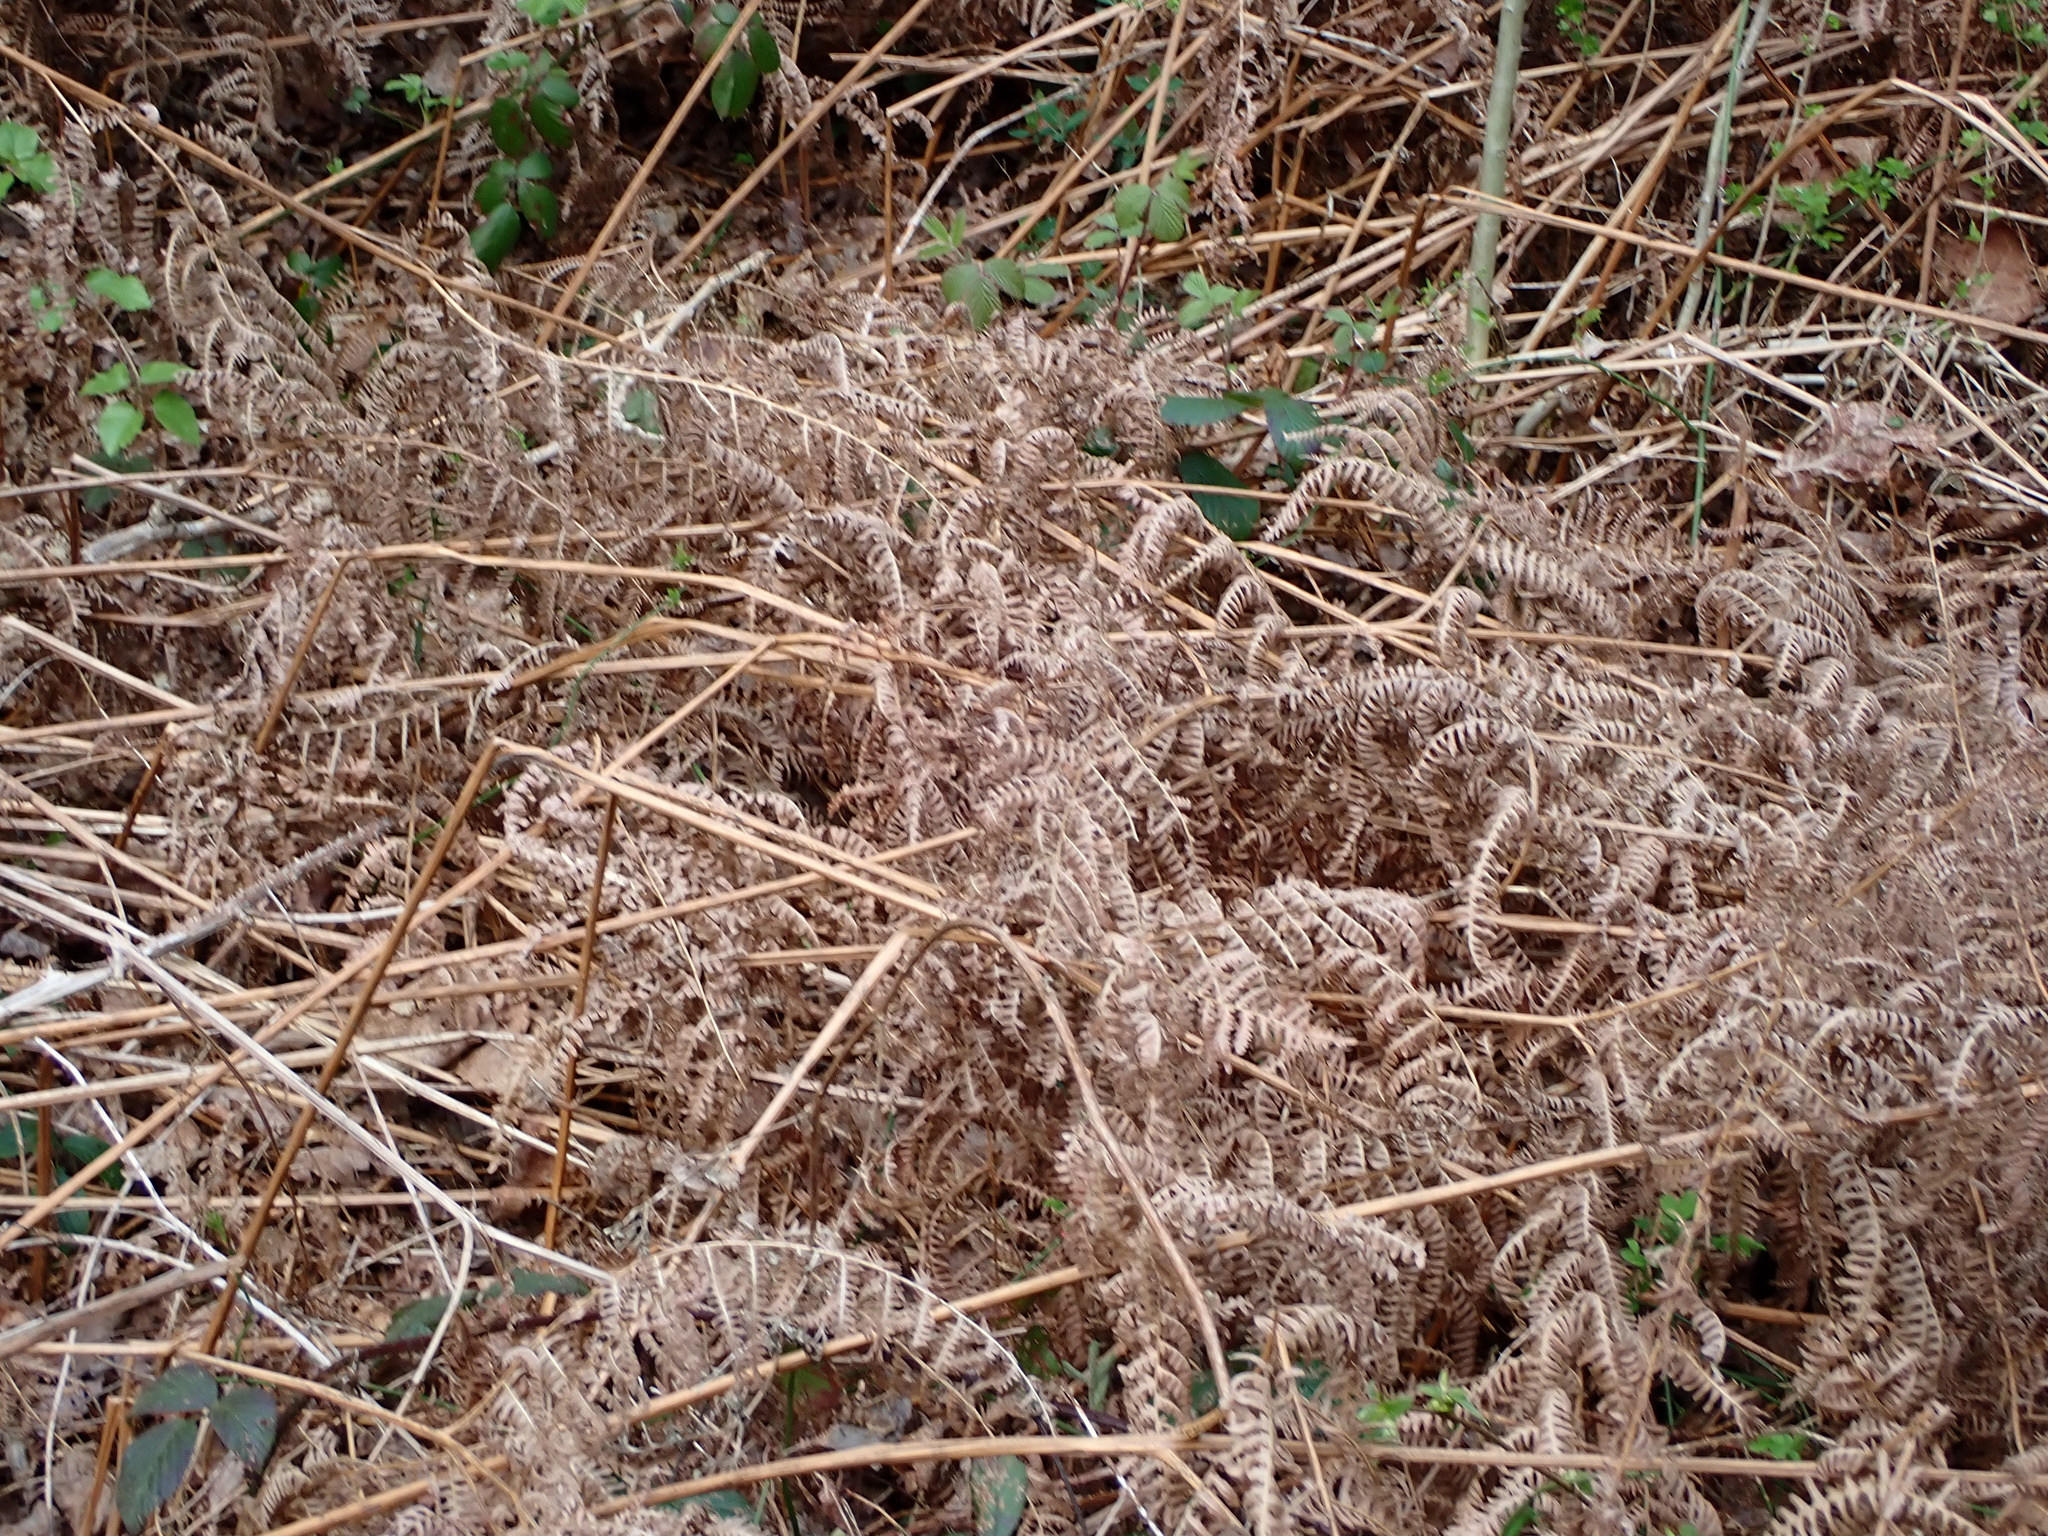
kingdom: Plantae
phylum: Tracheophyta
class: Polypodiopsida
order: Polypodiales
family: Dennstaedtiaceae
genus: Pteridium
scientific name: Pteridium aquilinum
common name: Bracken
